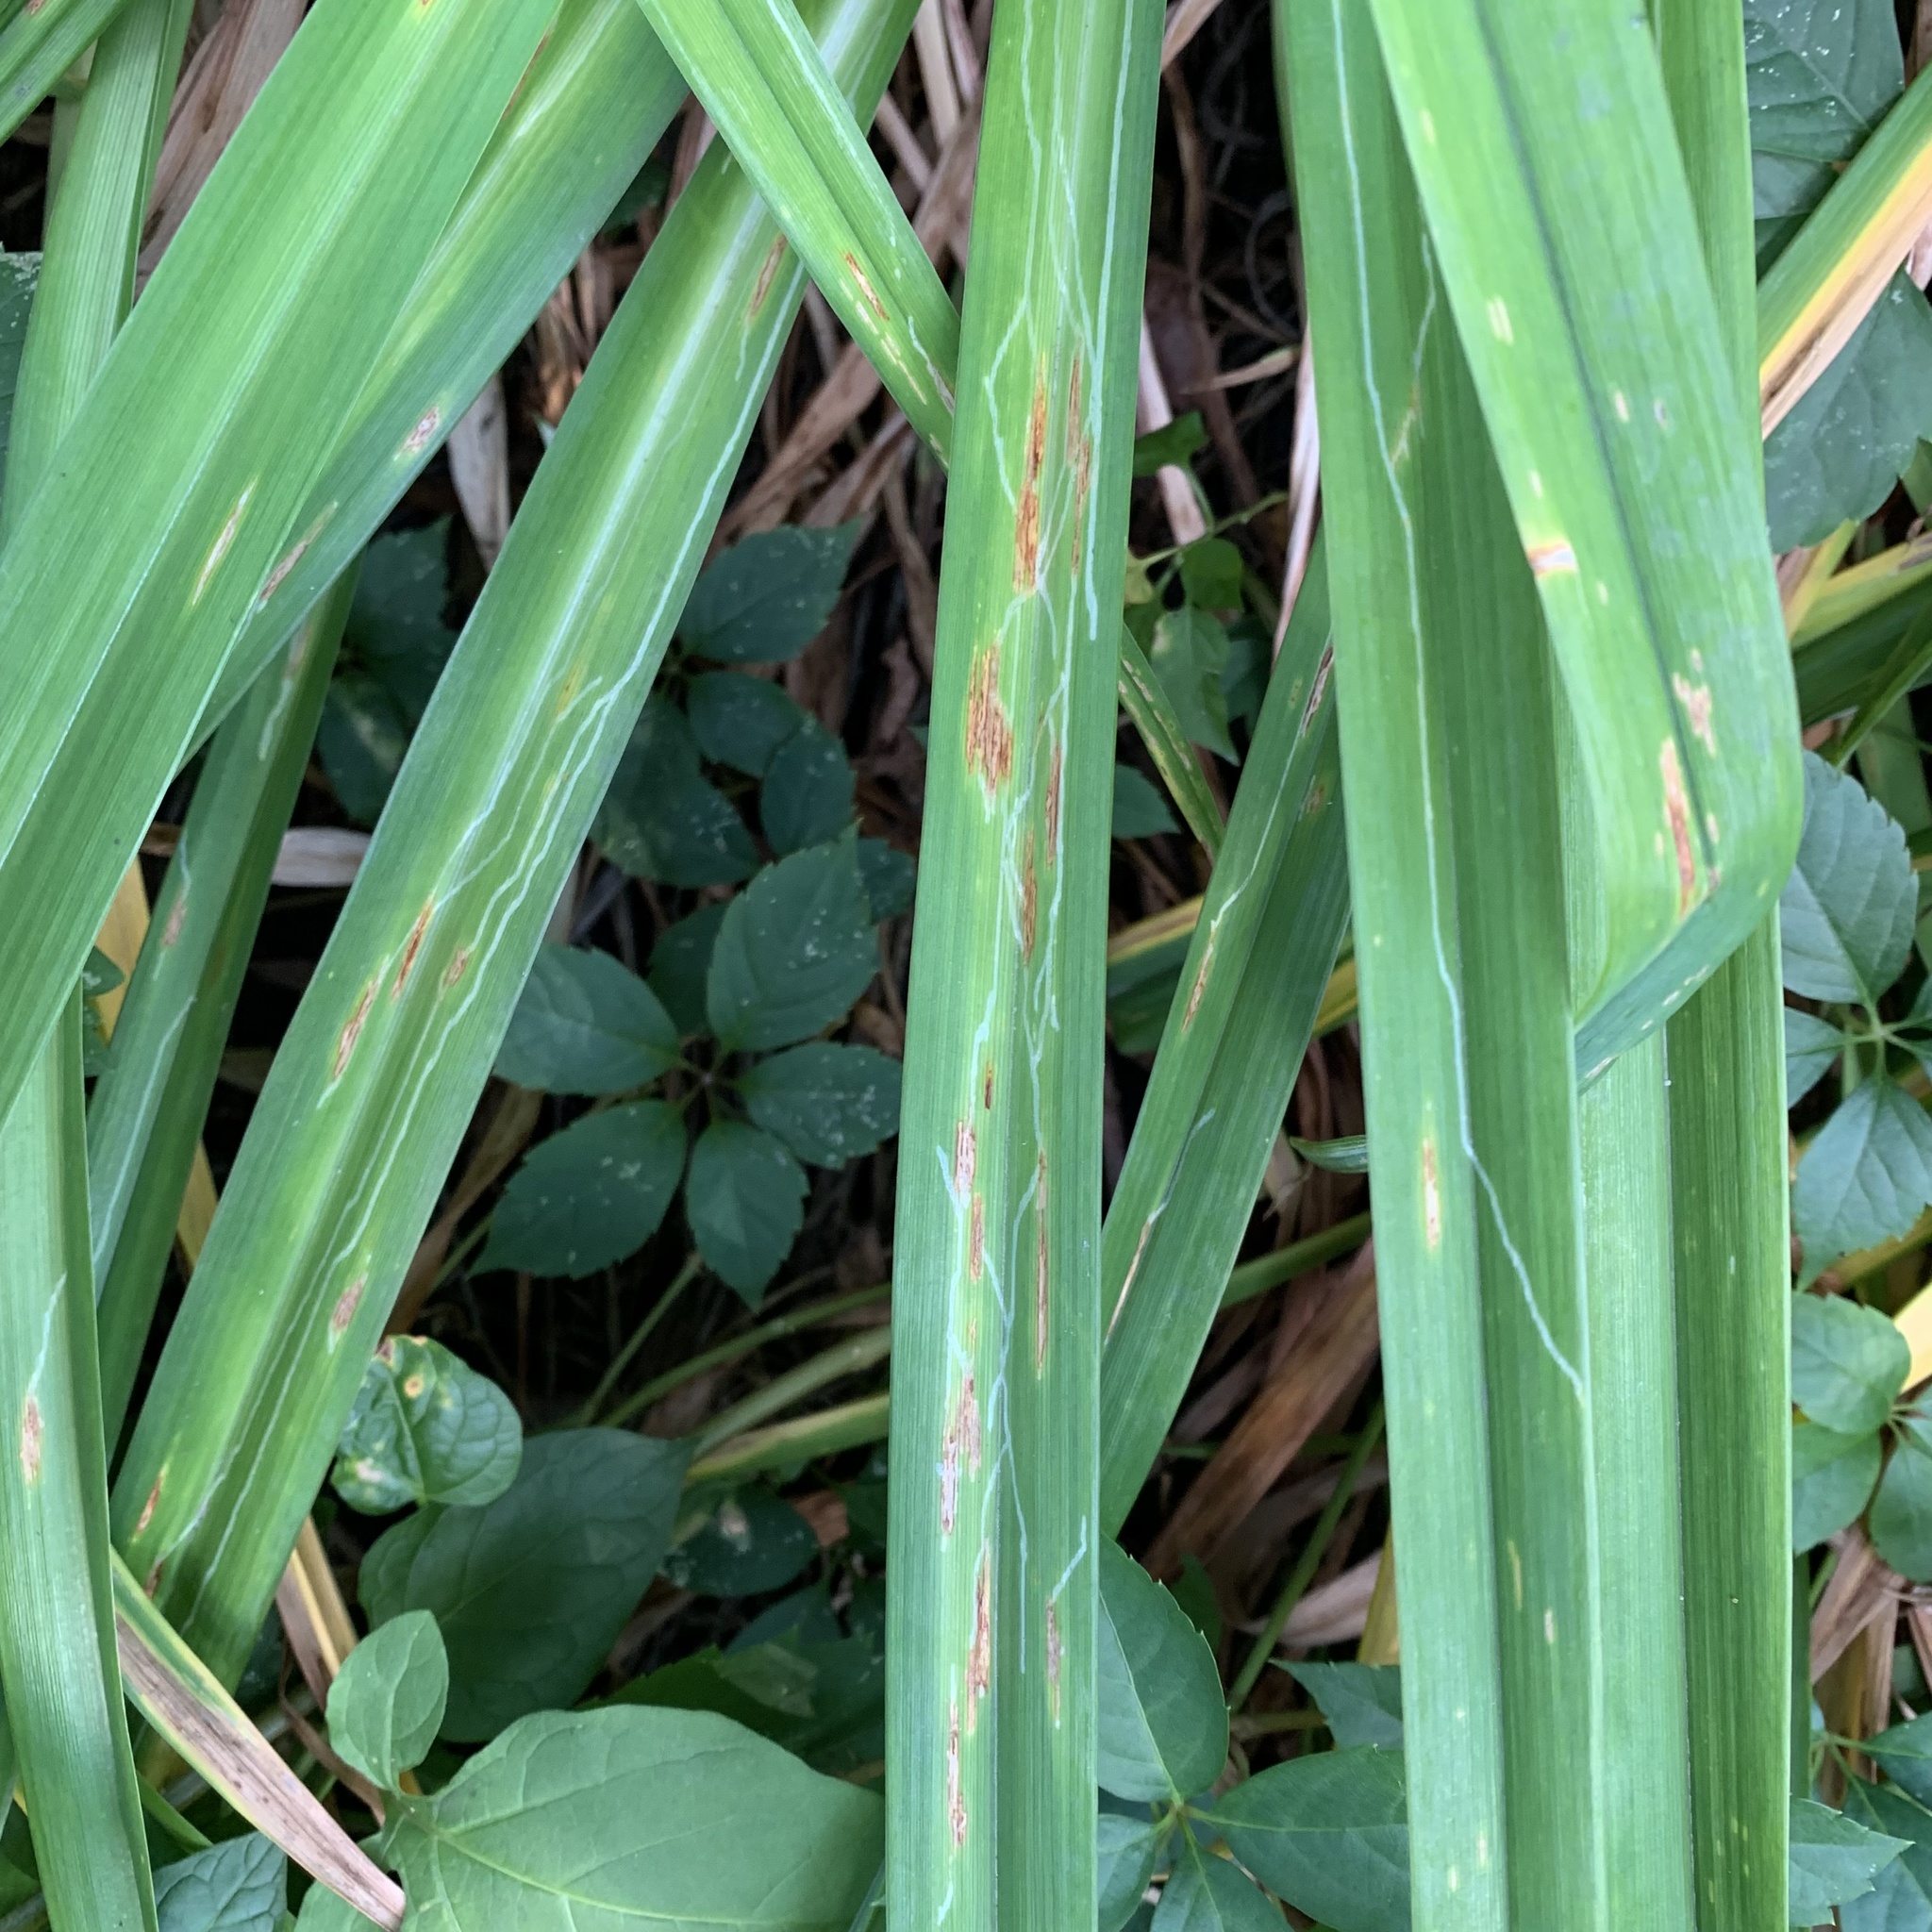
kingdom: Animalia
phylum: Arthropoda
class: Insecta
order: Diptera
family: Agromyzidae
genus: Ophiomyia
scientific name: Ophiomyia kwansonis
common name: Daylily leafminer
